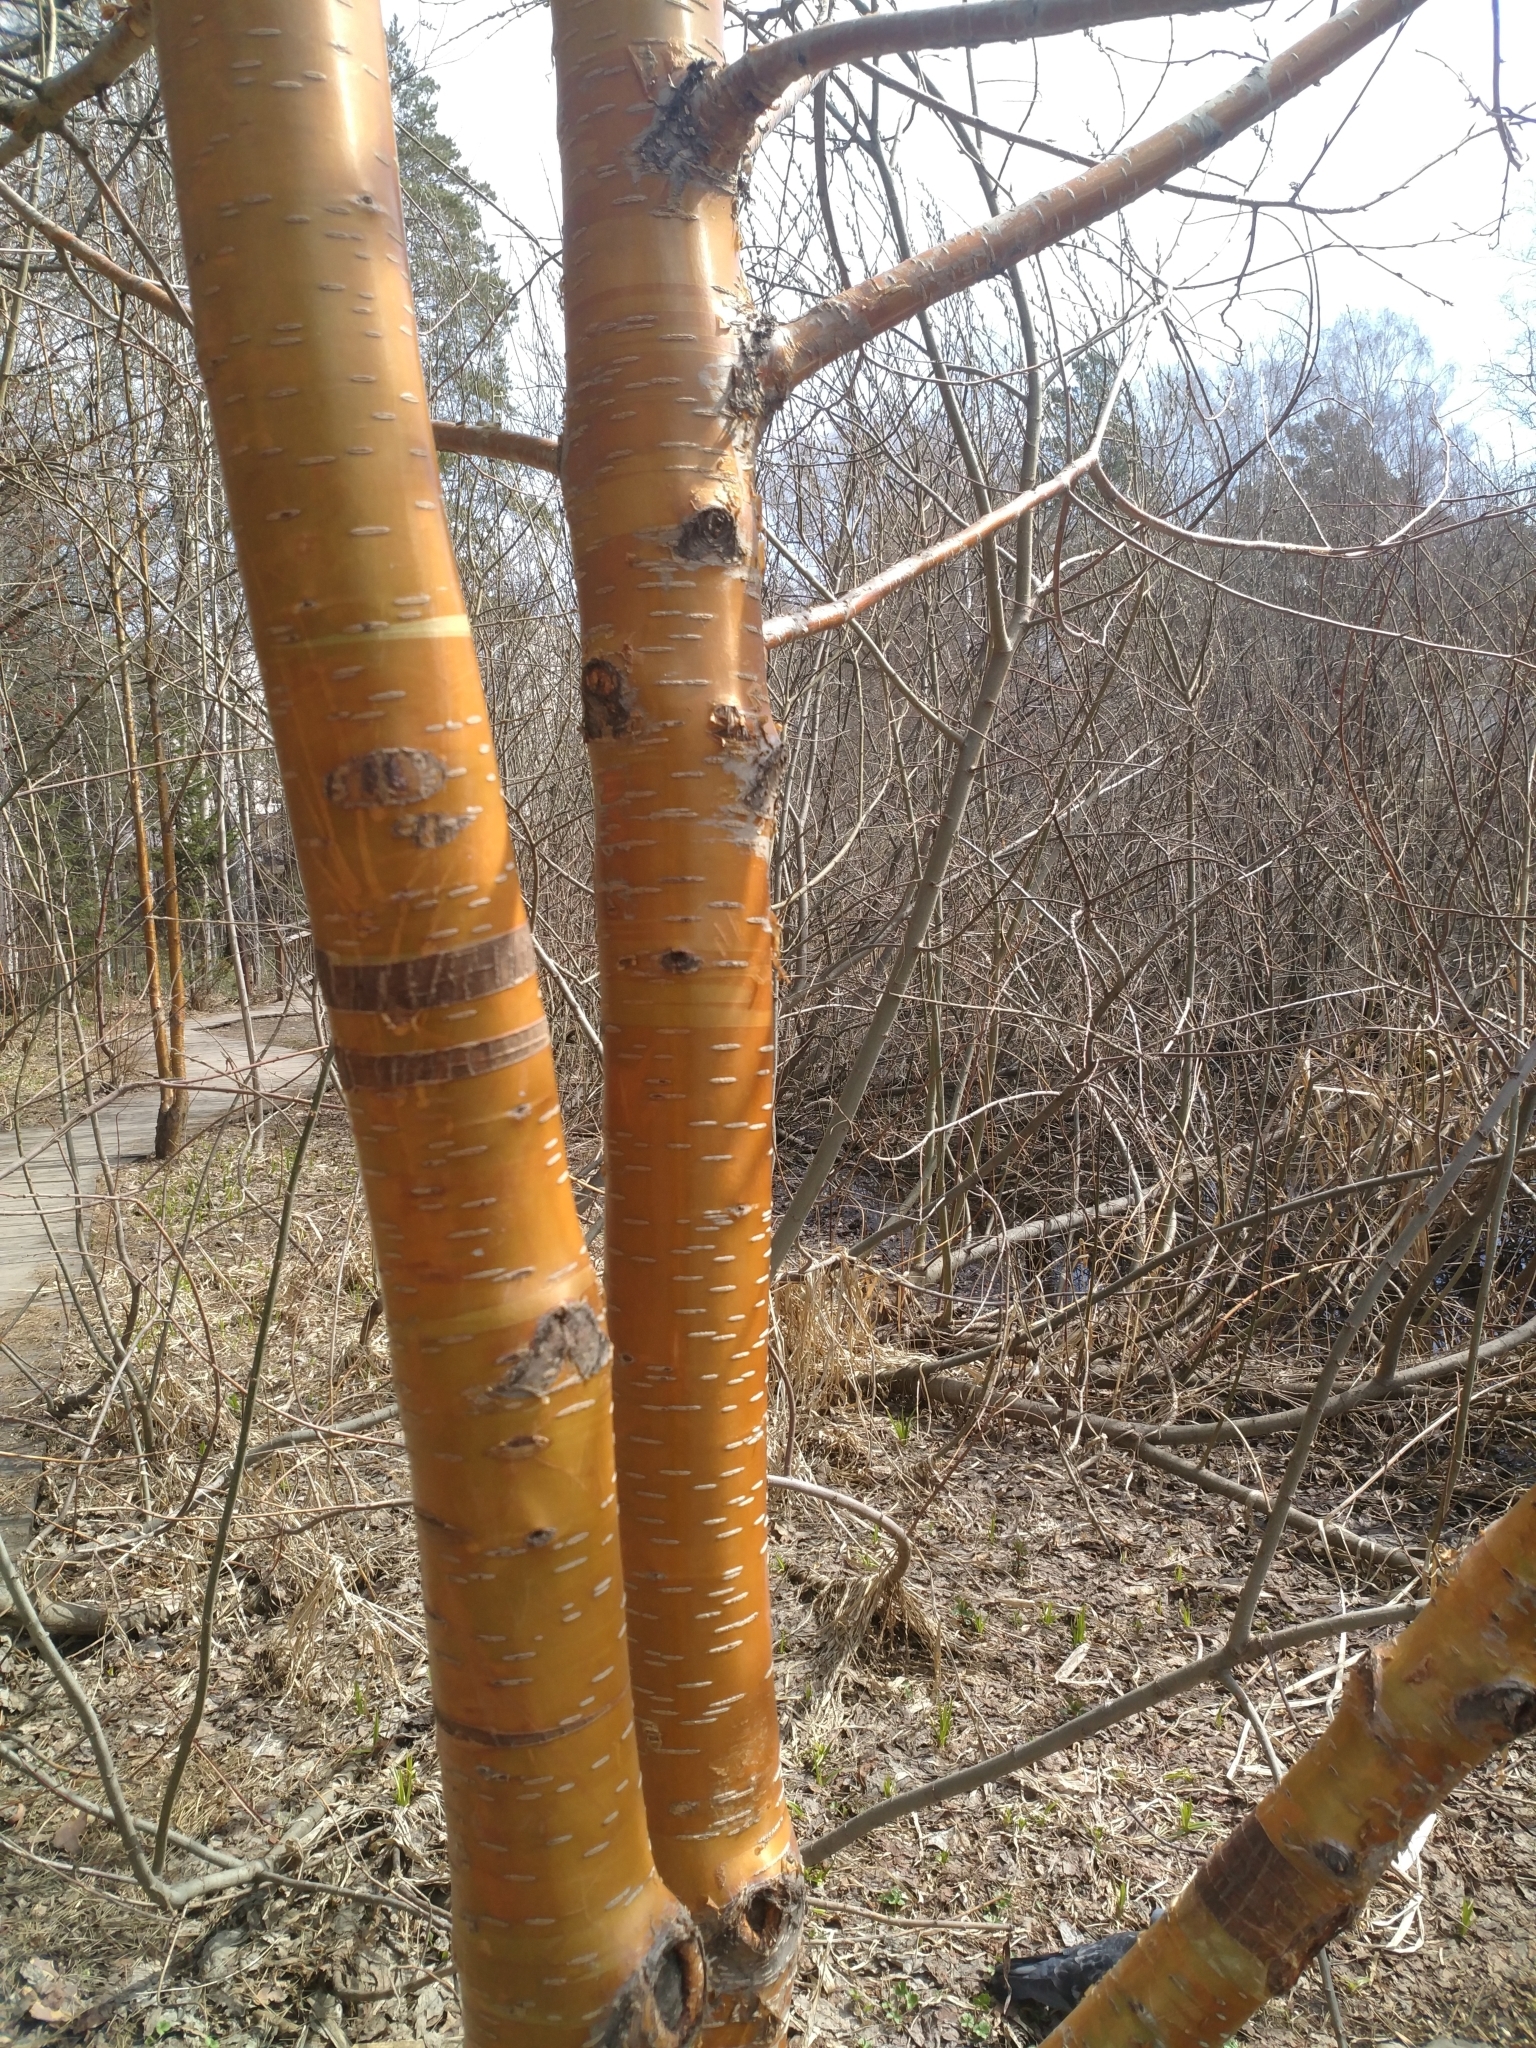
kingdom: Plantae
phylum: Tracheophyta
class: Magnoliopsida
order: Rosales
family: Rosaceae
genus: Prunus
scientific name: Prunus glandulifolia
